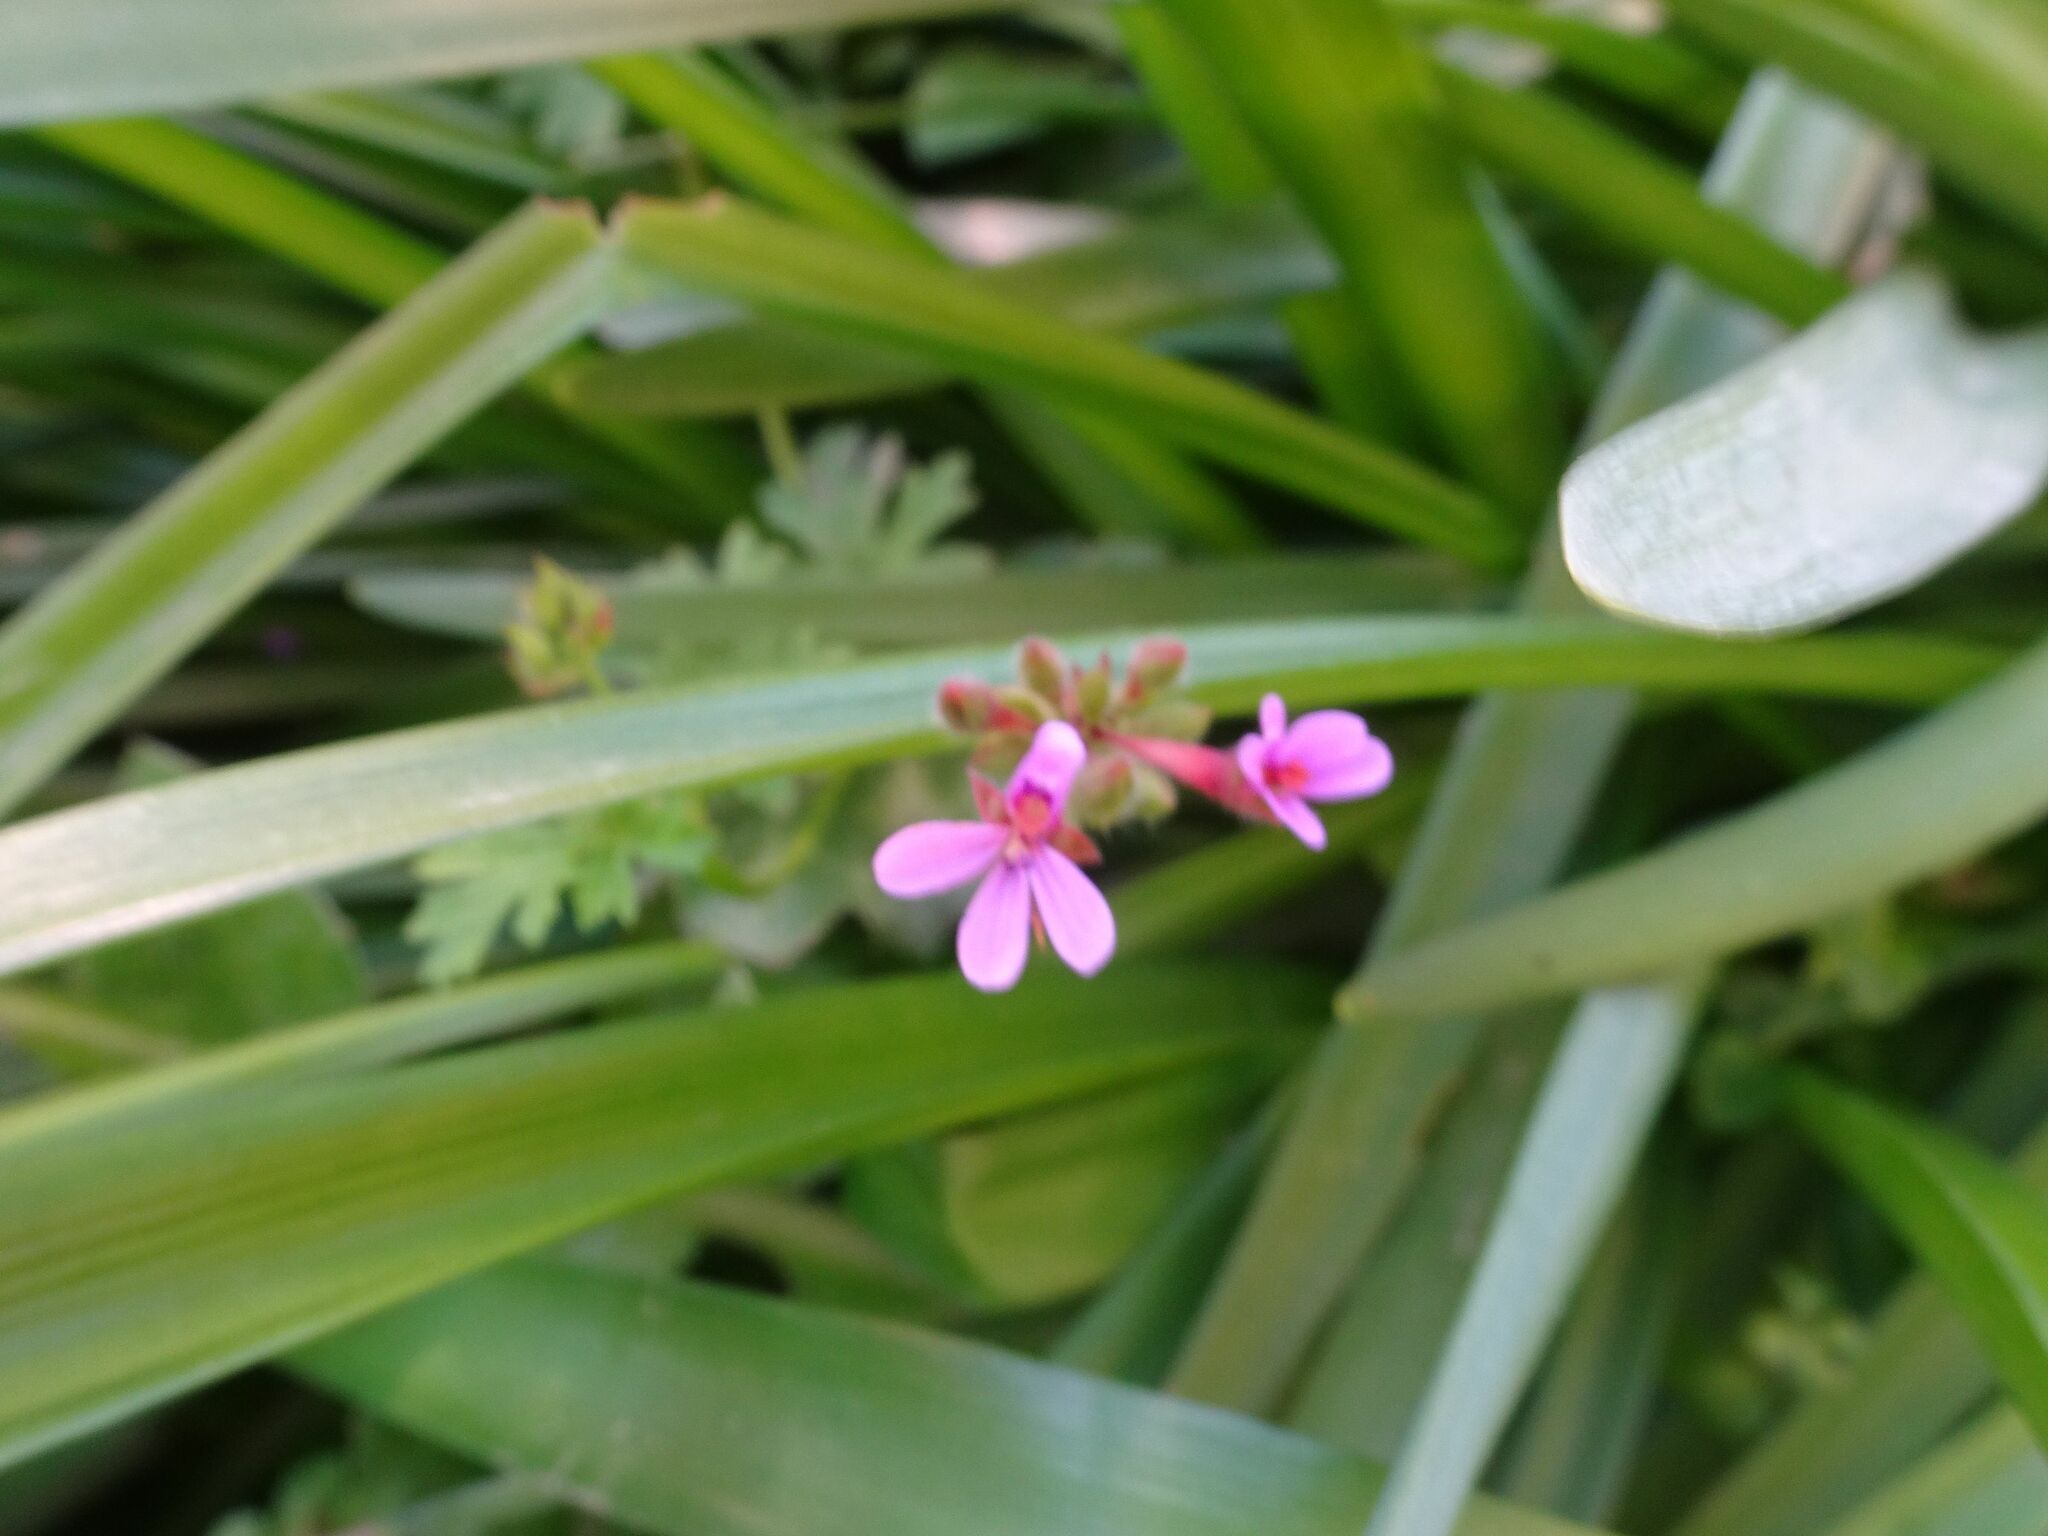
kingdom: Plantae
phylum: Tracheophyta
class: Magnoliopsida
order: Geraniales
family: Geraniaceae
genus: Pelargonium
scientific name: Pelargonium grossularioides
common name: Gooseberry geranium
